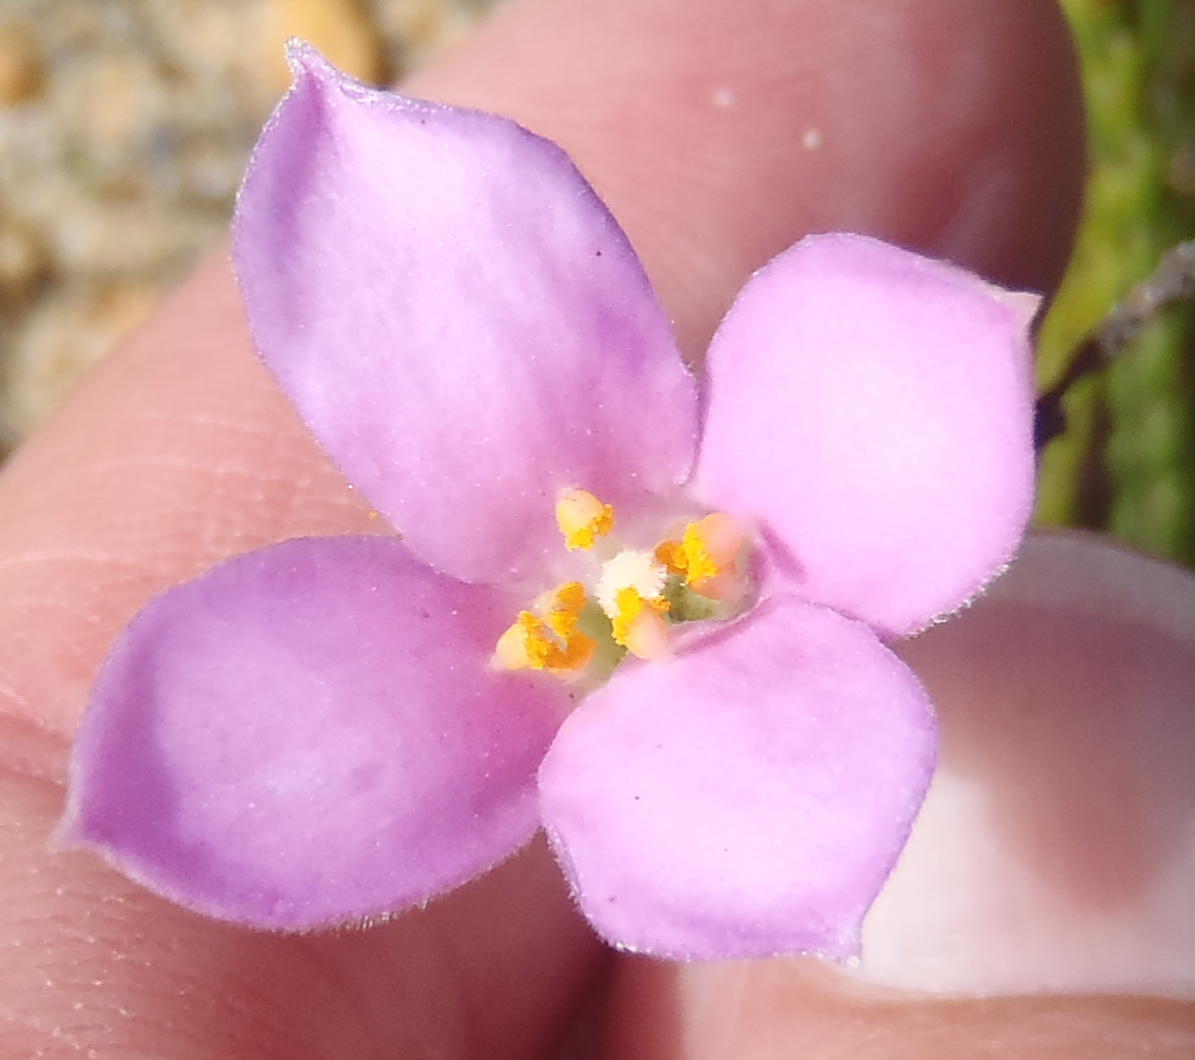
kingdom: Plantae
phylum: Tracheophyta
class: Magnoliopsida
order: Malvales
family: Thymelaeaceae
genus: Lachnaea
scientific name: Lachnaea grandiflora
